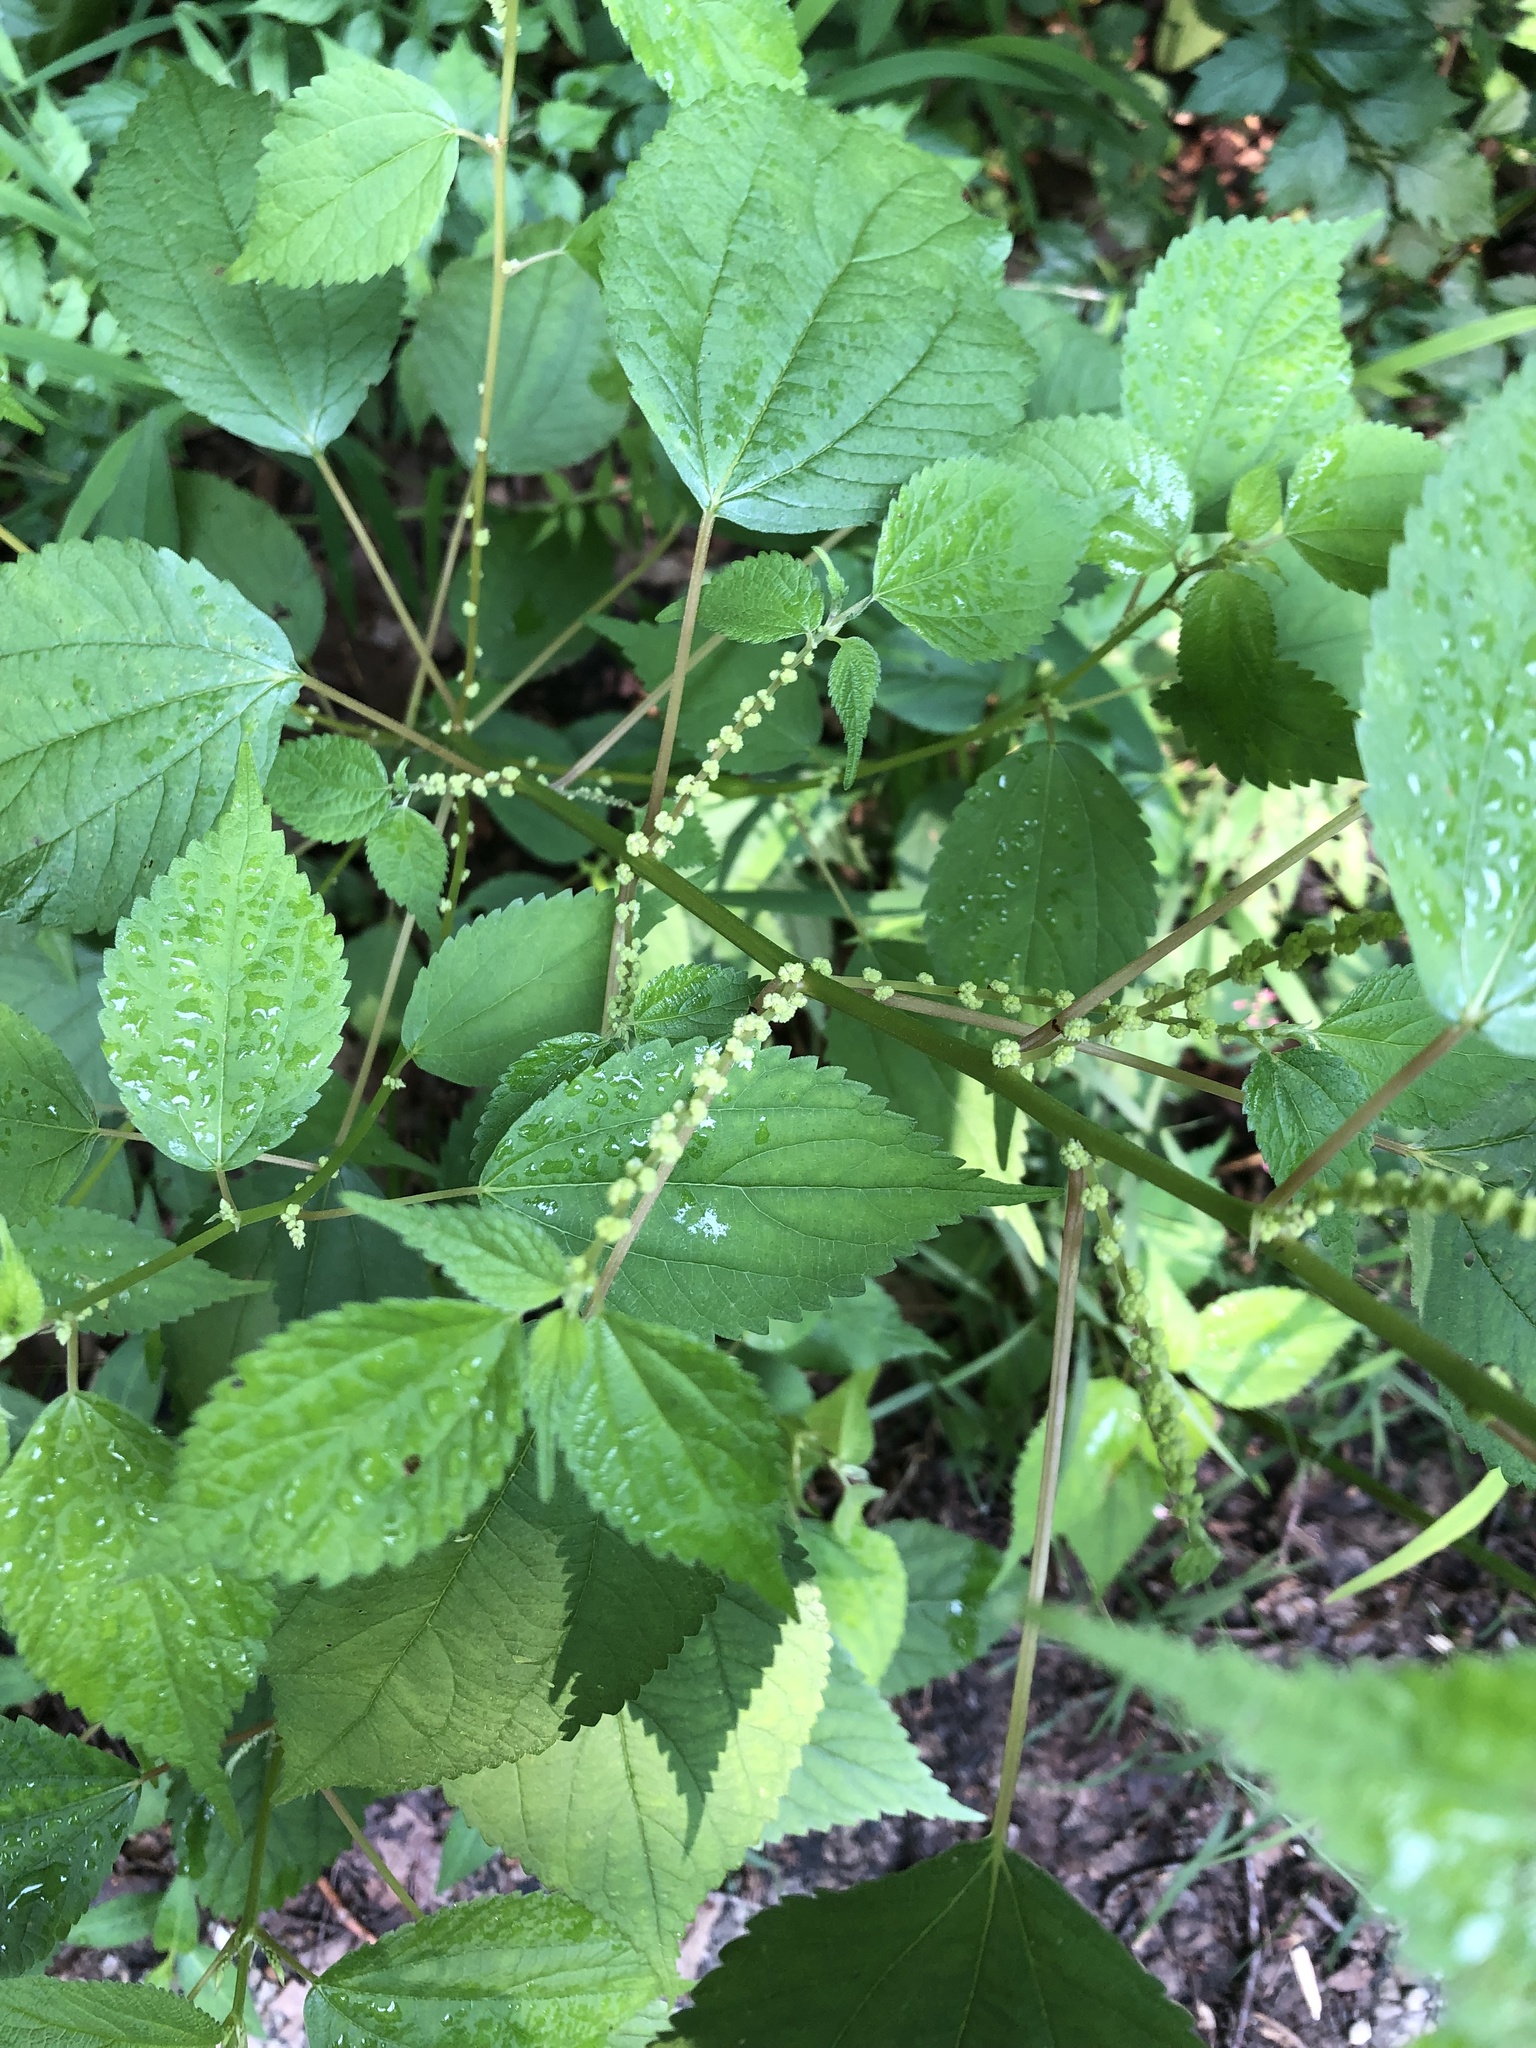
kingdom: Plantae
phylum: Tracheophyta
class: Magnoliopsida
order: Rosales
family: Urticaceae
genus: Boehmeria
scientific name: Boehmeria cylindrica
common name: Bog-hemp
